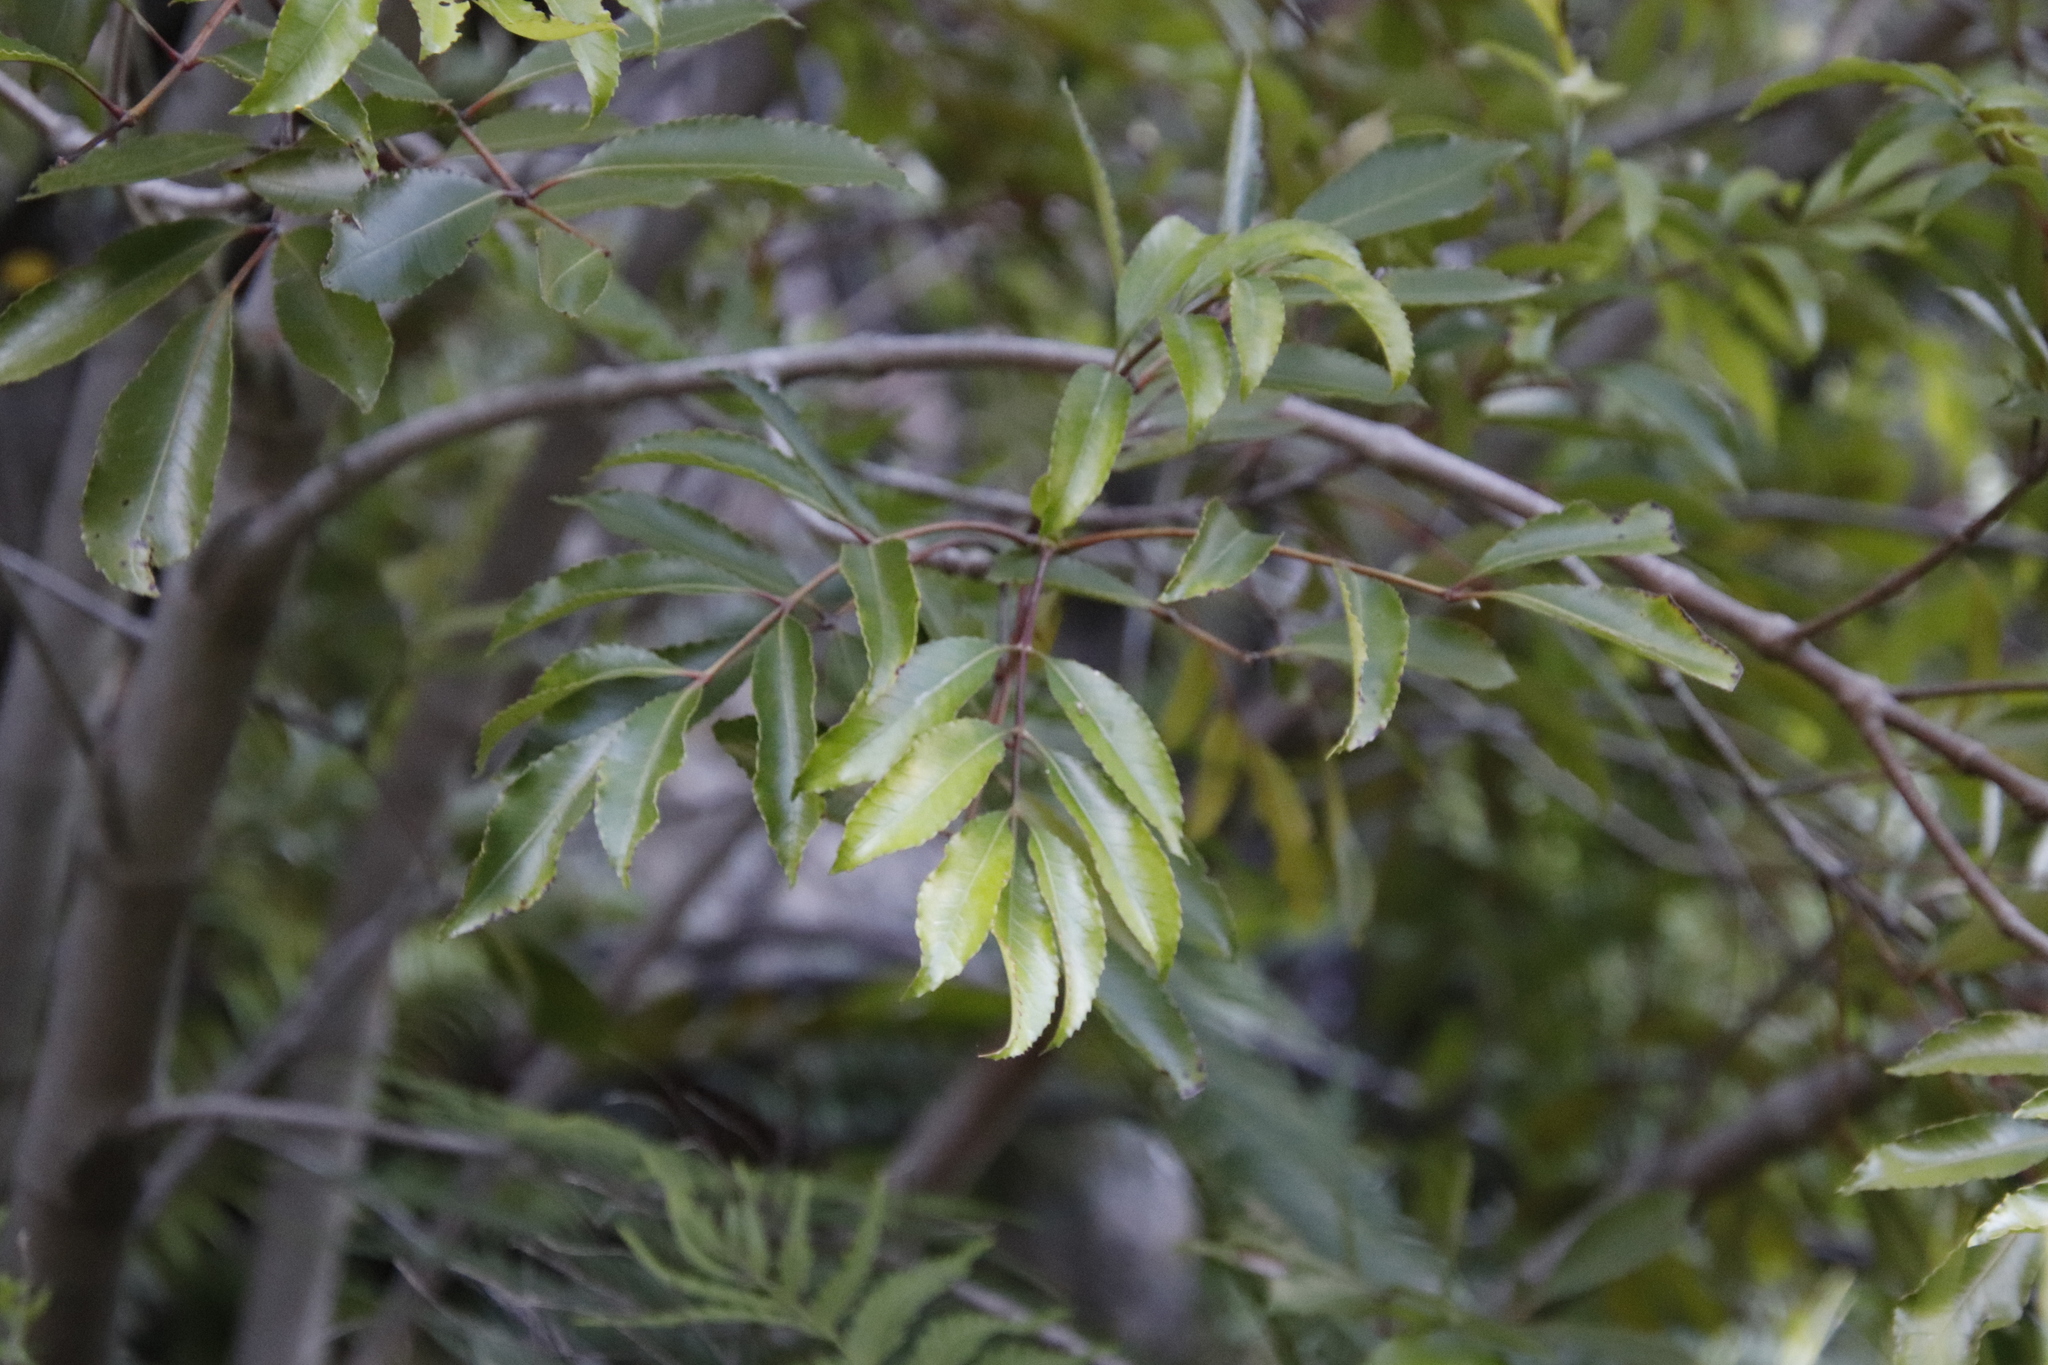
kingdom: Plantae
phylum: Tracheophyta
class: Magnoliopsida
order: Oxalidales
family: Cunoniaceae
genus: Cunonia
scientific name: Cunonia capensis
